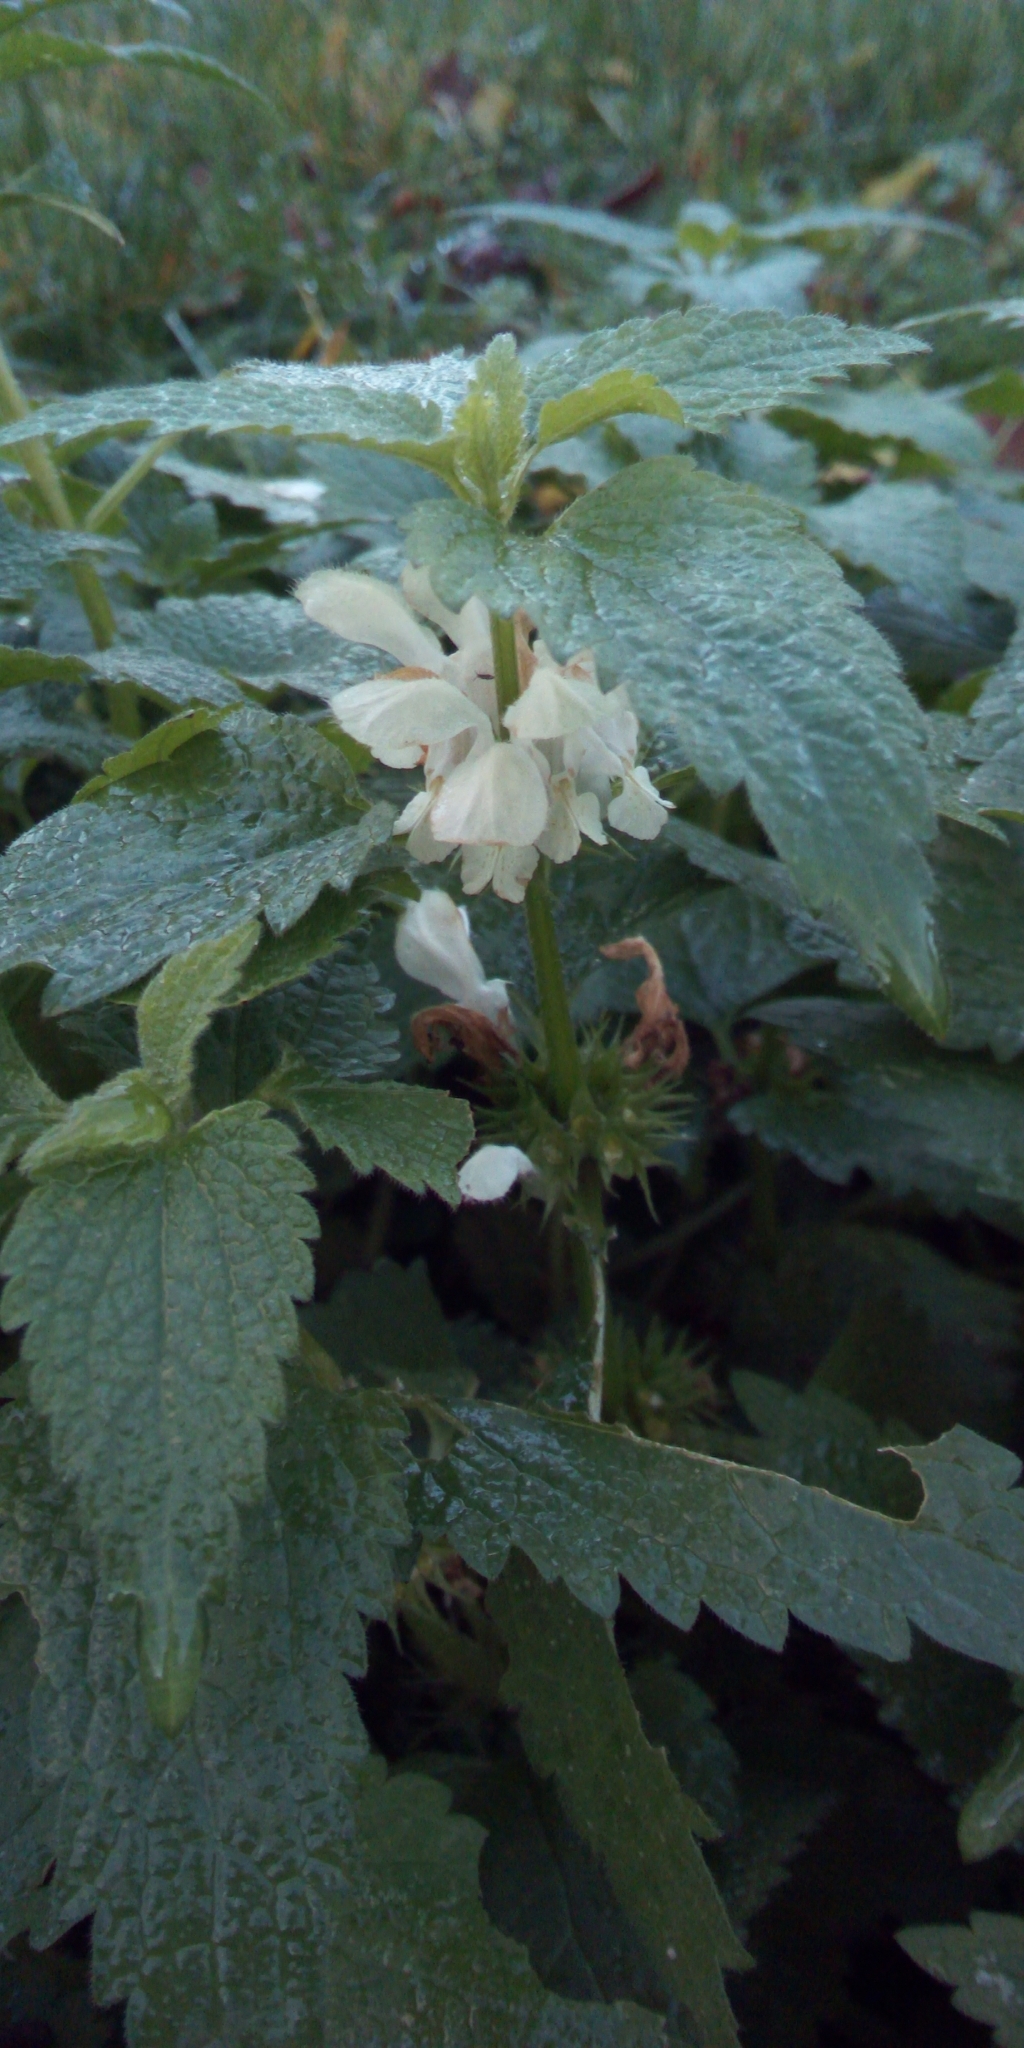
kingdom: Plantae
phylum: Tracheophyta
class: Magnoliopsida
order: Lamiales
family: Lamiaceae
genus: Lamium
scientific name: Lamium album
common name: White dead-nettle
